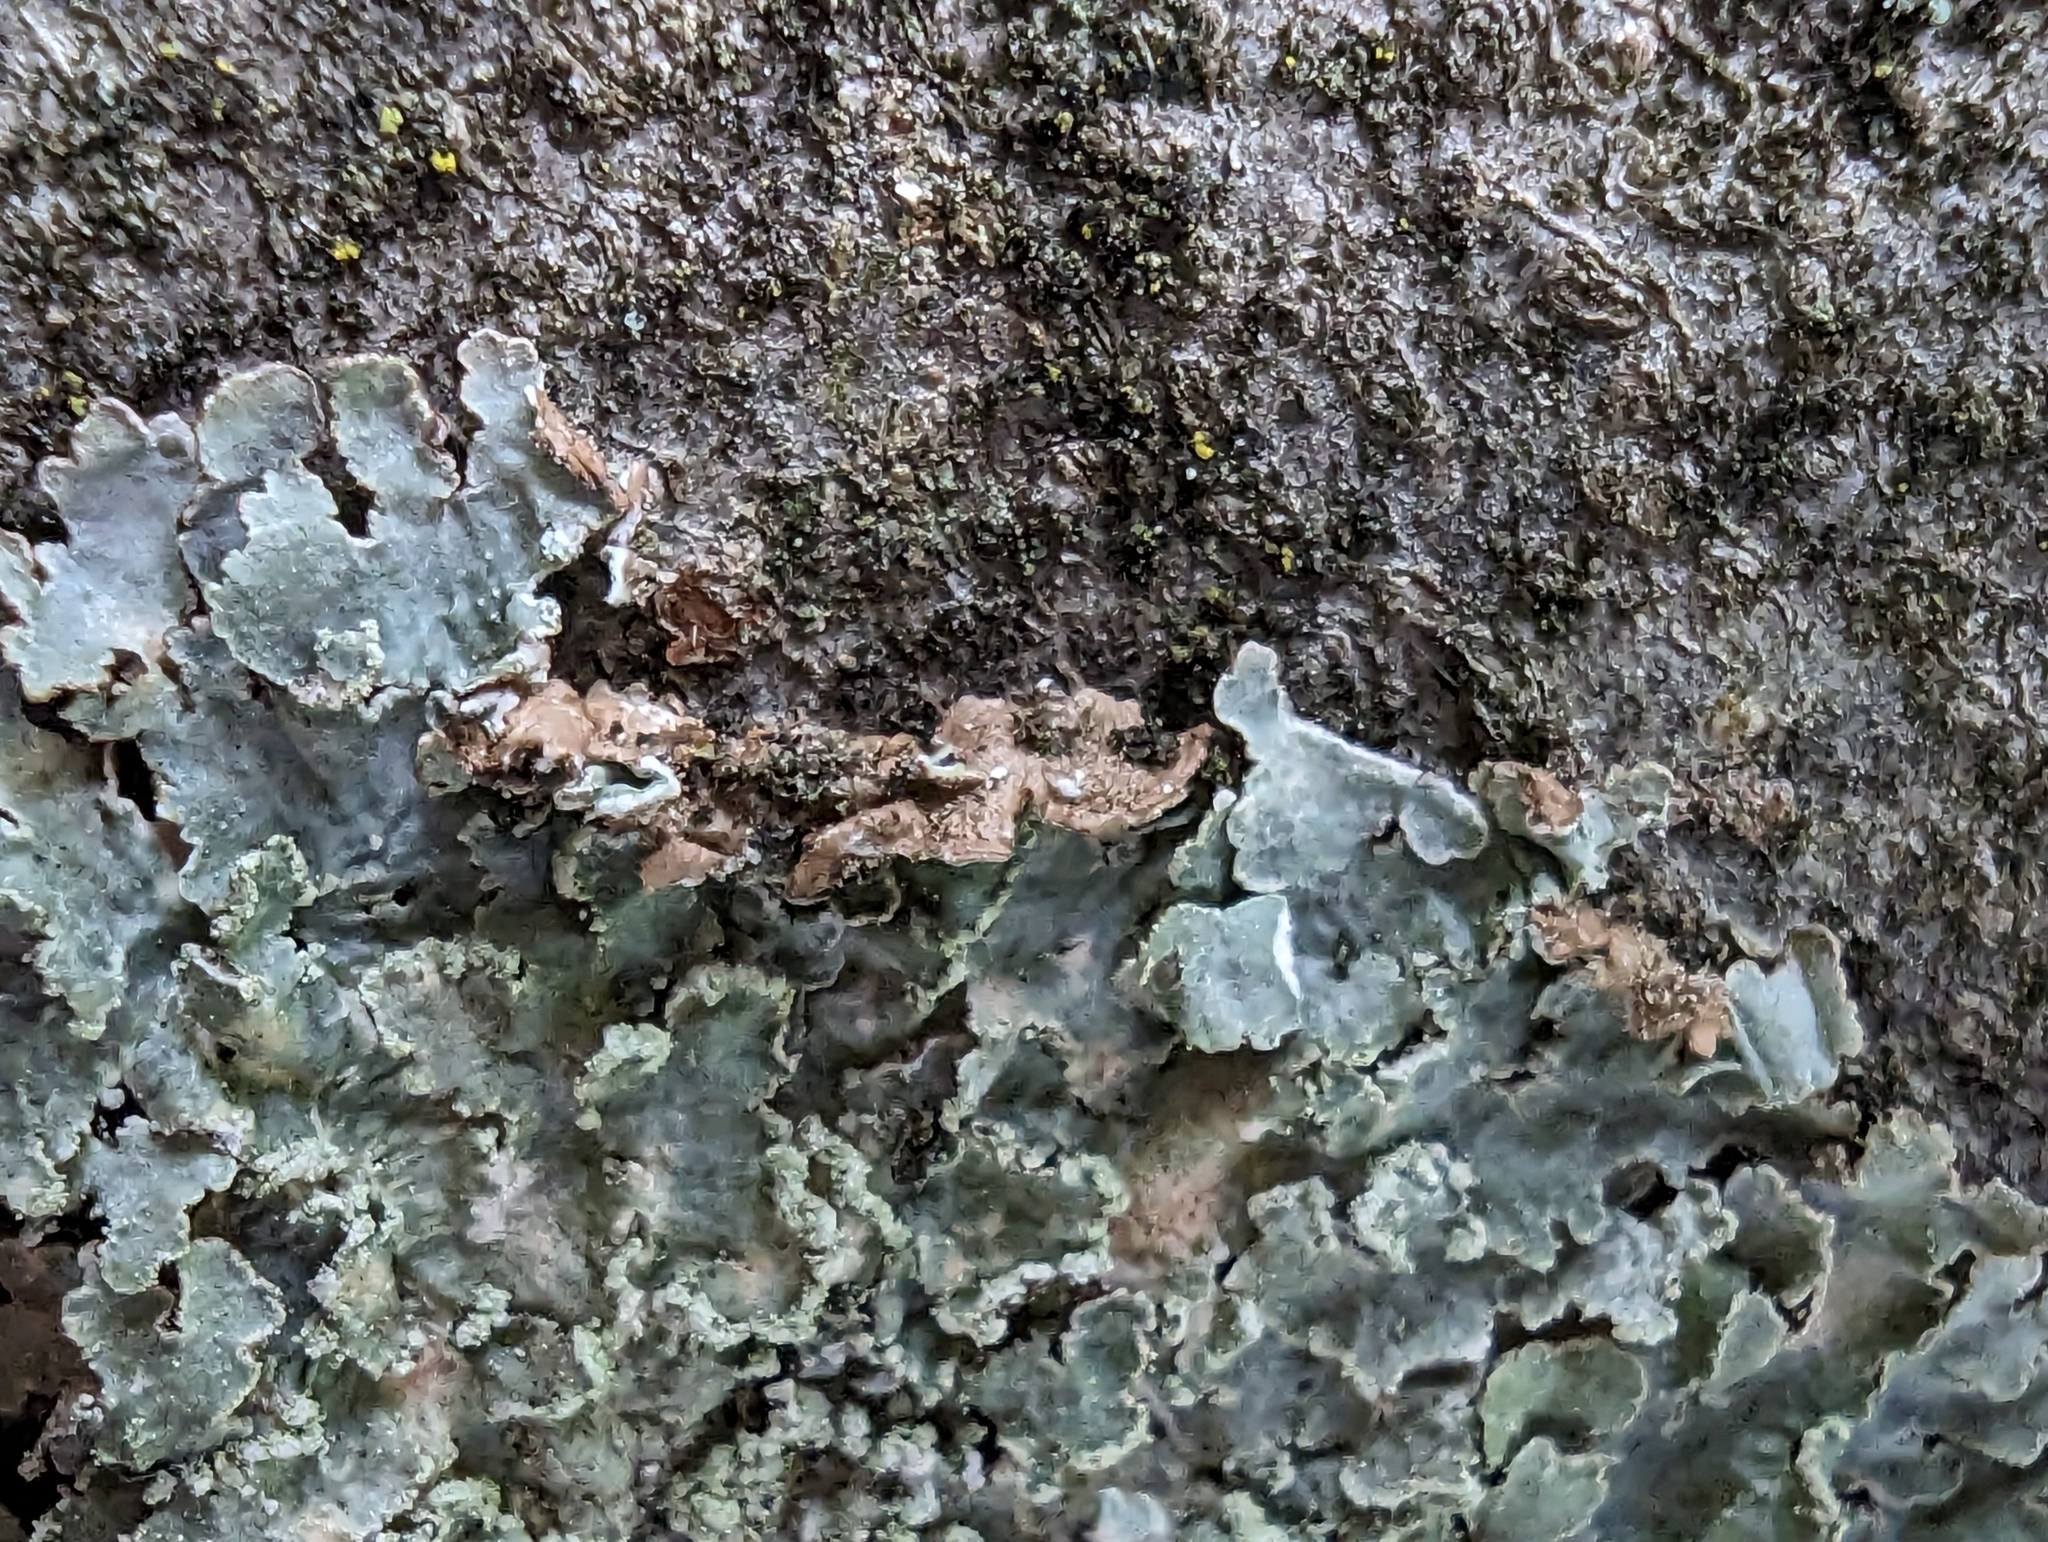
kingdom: Fungi
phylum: Ascomycota
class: Lecanoromycetes
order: Lecanorales
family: Parmeliaceae
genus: Punctelia
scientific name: Punctelia jeckeri
